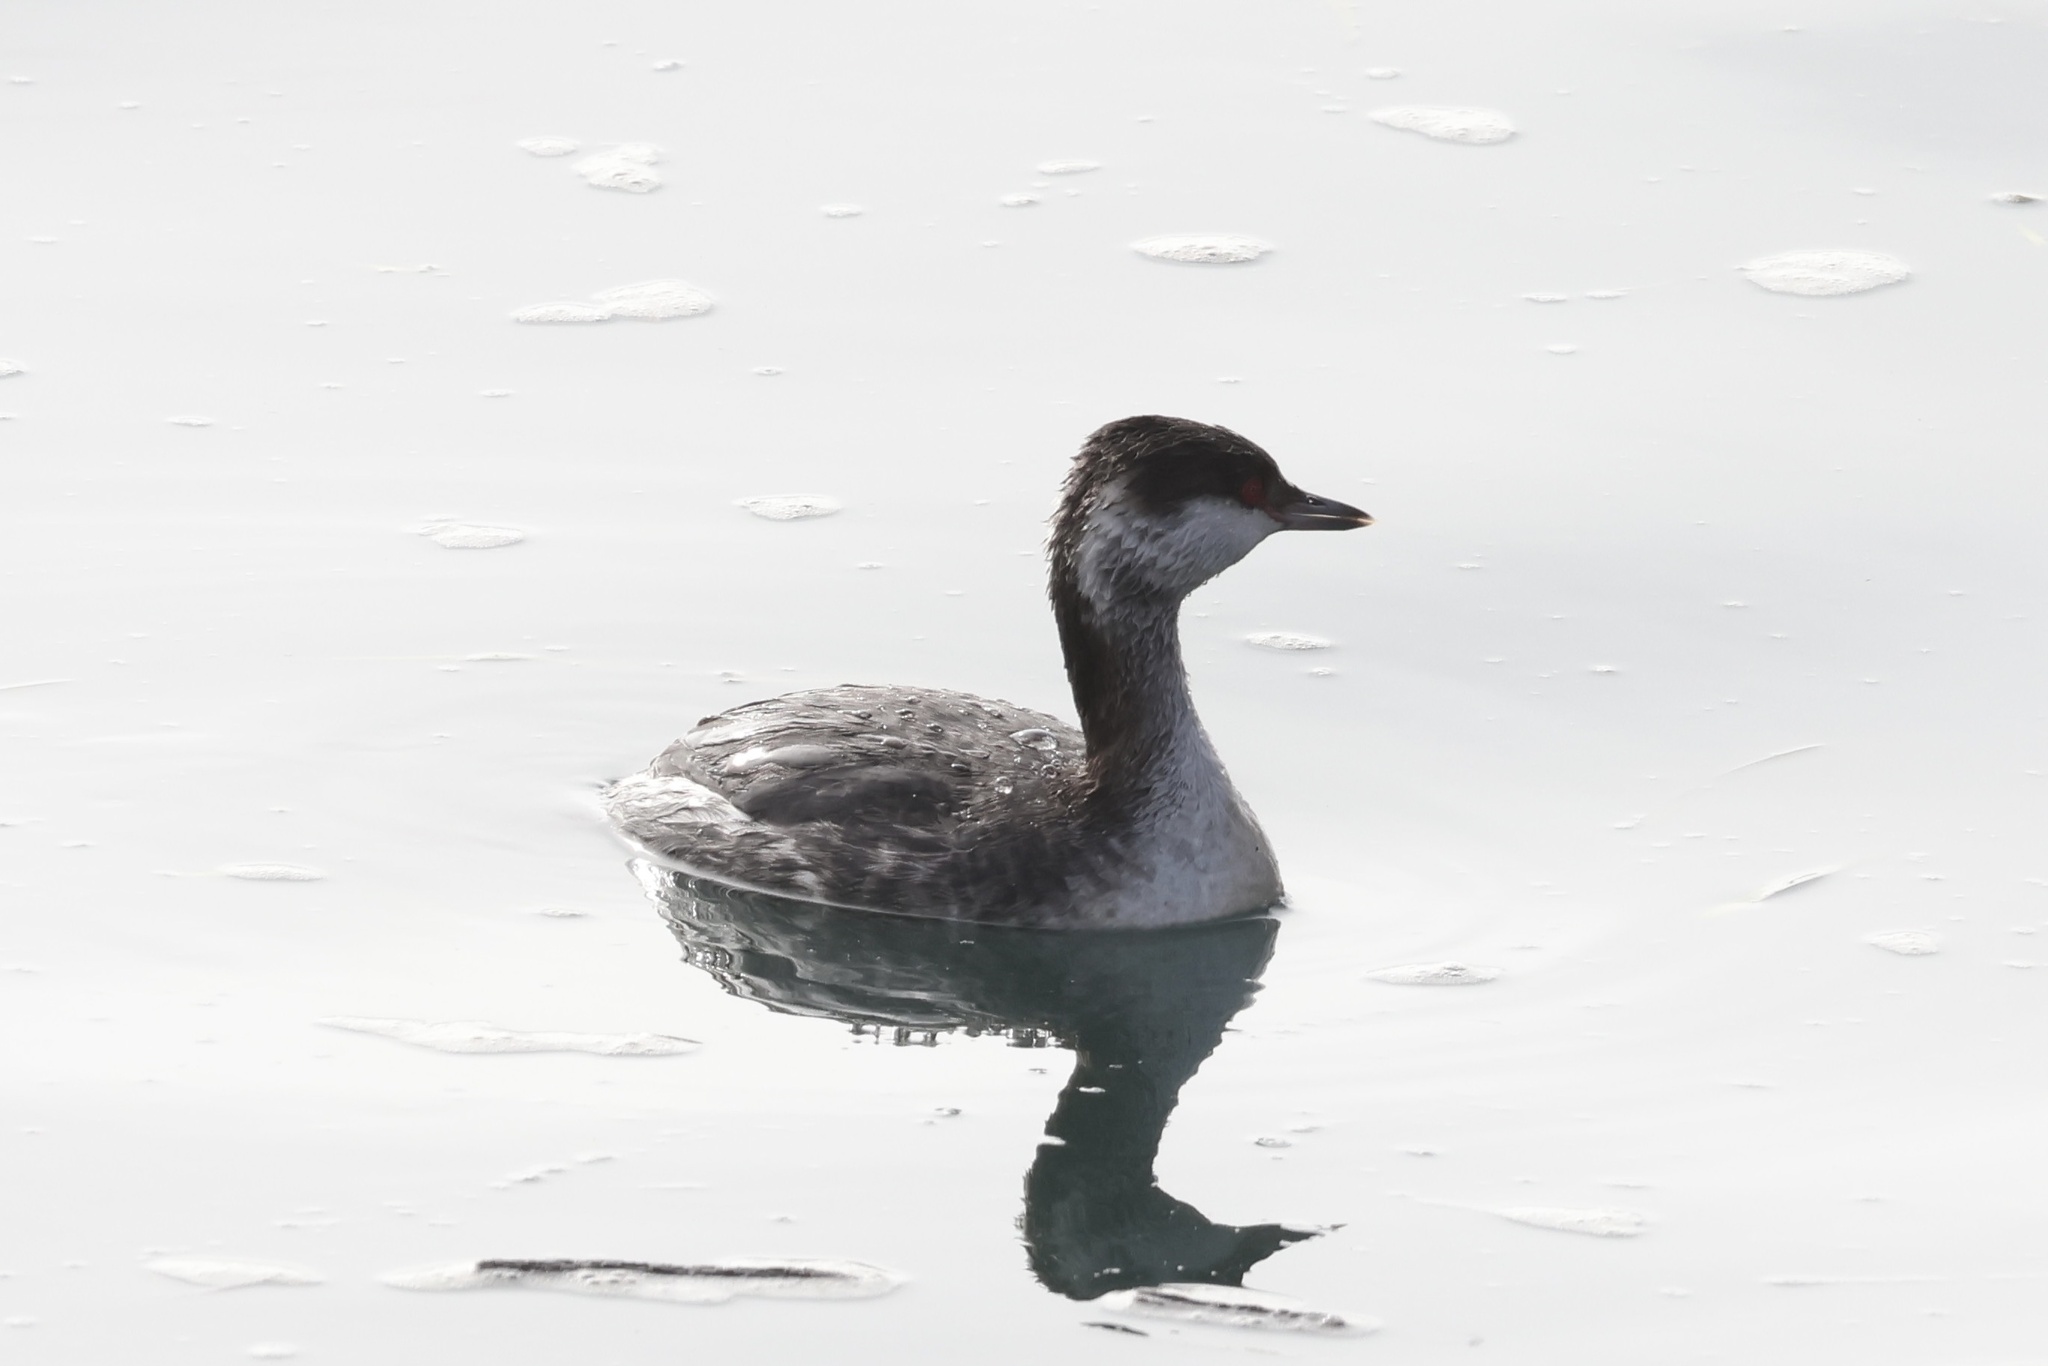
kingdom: Animalia
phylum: Chordata
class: Aves
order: Podicipediformes
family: Podicipedidae
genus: Podiceps
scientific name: Podiceps auritus
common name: Horned grebe
